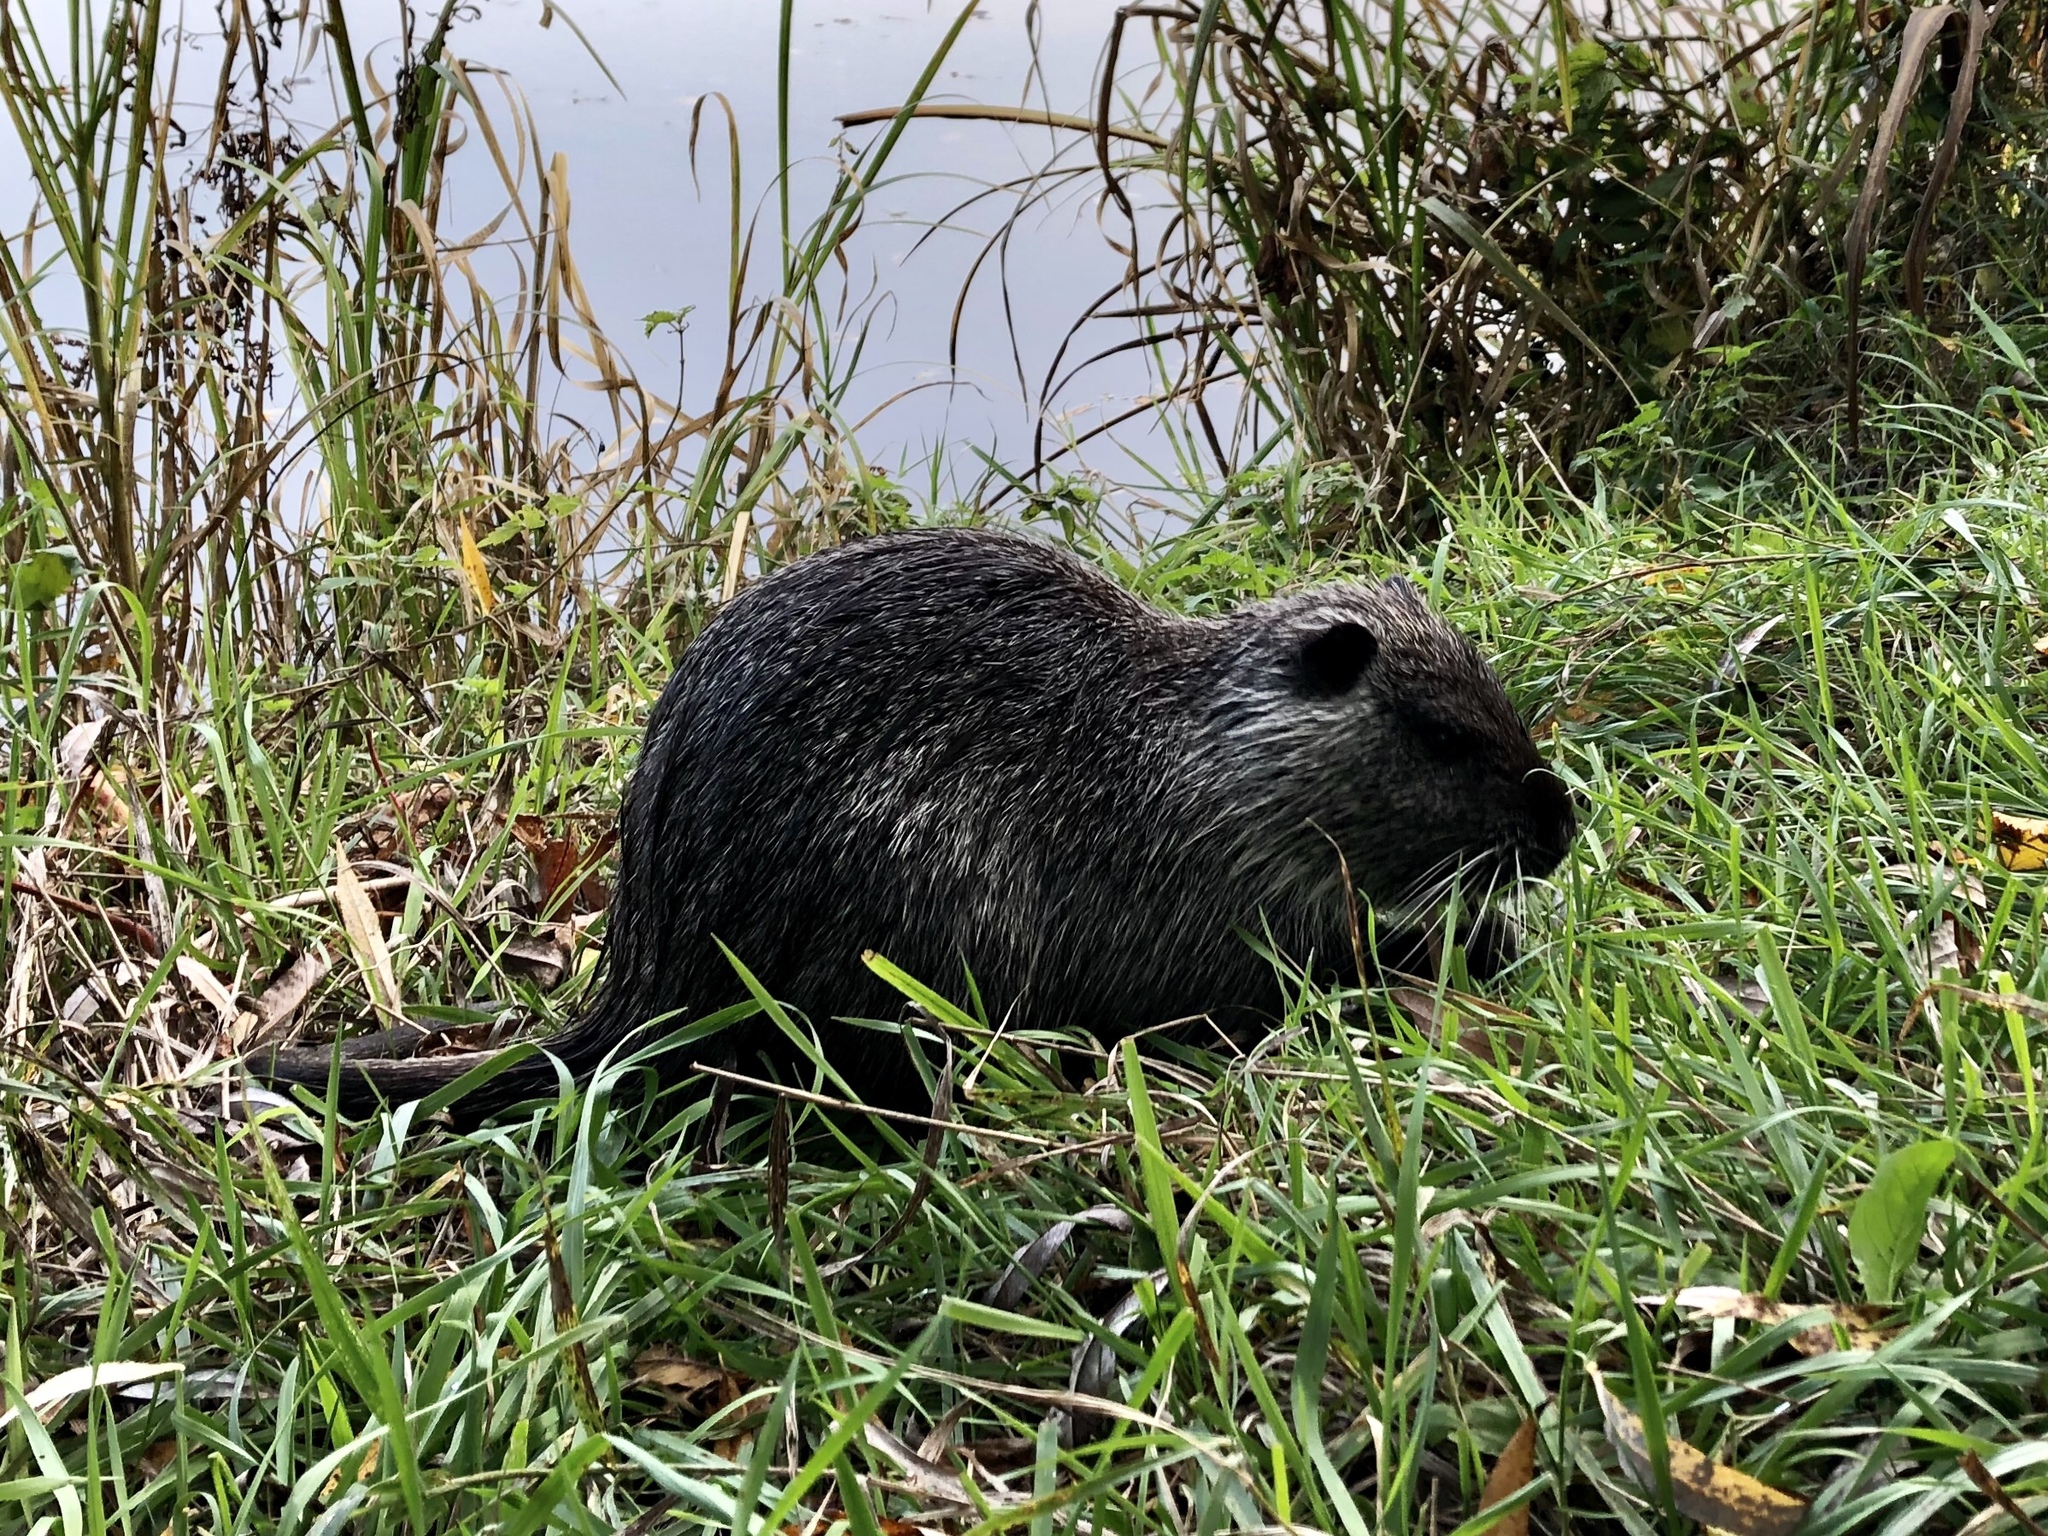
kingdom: Animalia
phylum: Chordata
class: Mammalia
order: Rodentia
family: Myocastoridae
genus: Myocastor
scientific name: Myocastor coypus
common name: Coypu
